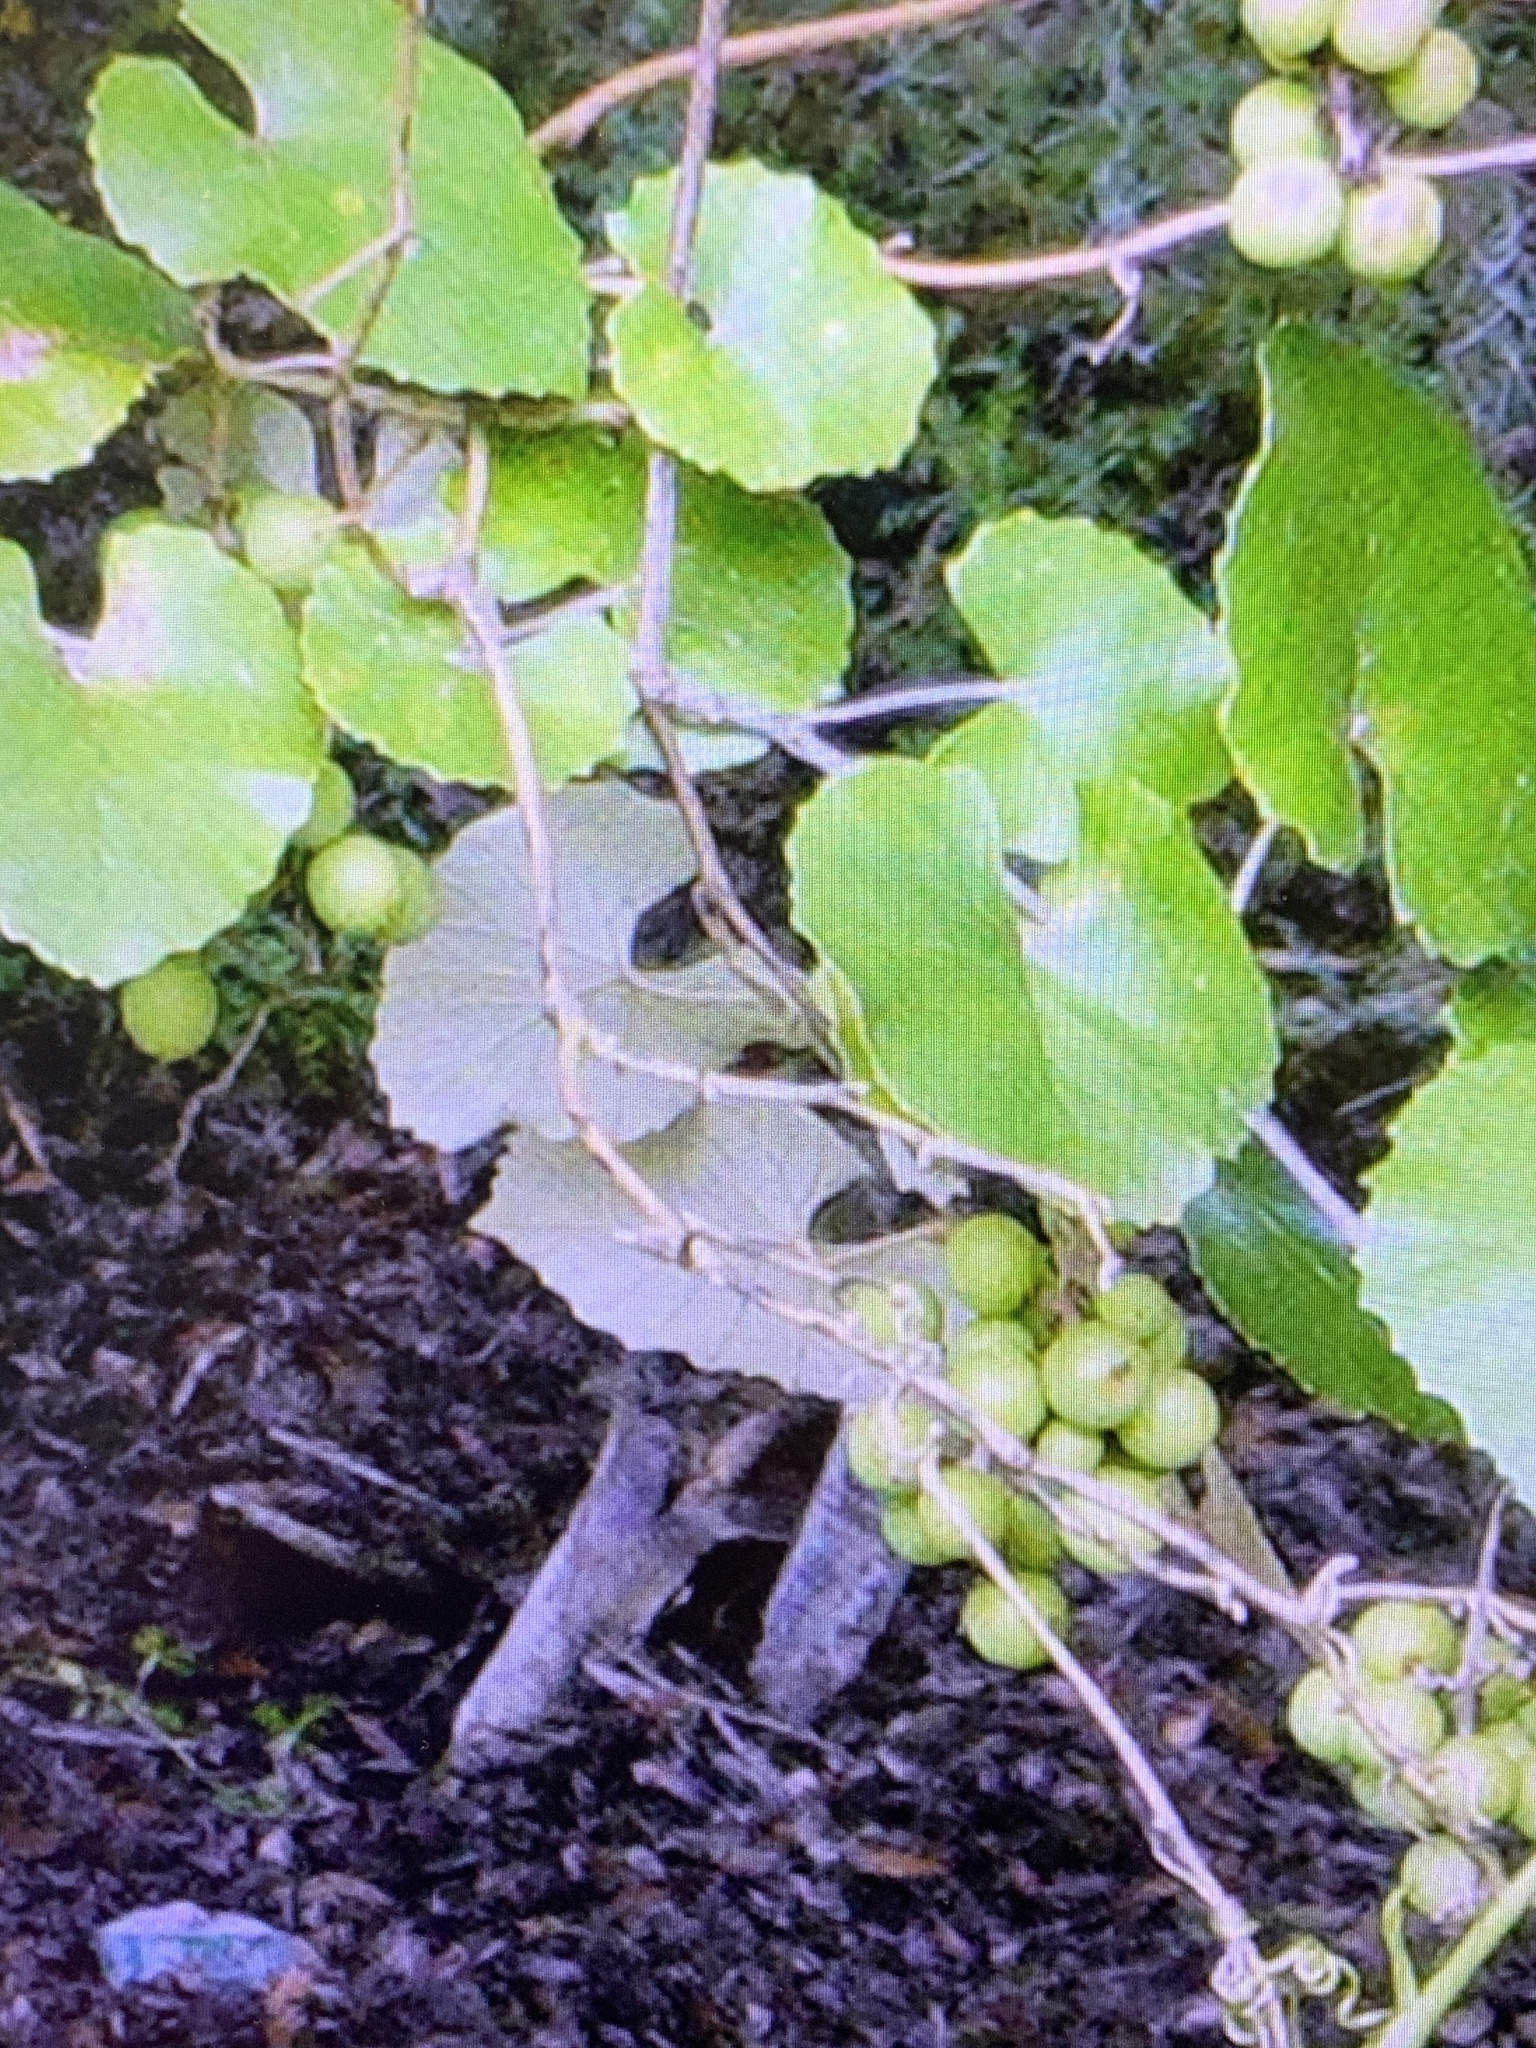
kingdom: Plantae
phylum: Tracheophyta
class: Magnoliopsida
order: Vitales
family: Vitaceae
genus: Vitis
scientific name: Vitis shuttleworthii
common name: Caloosa grape
